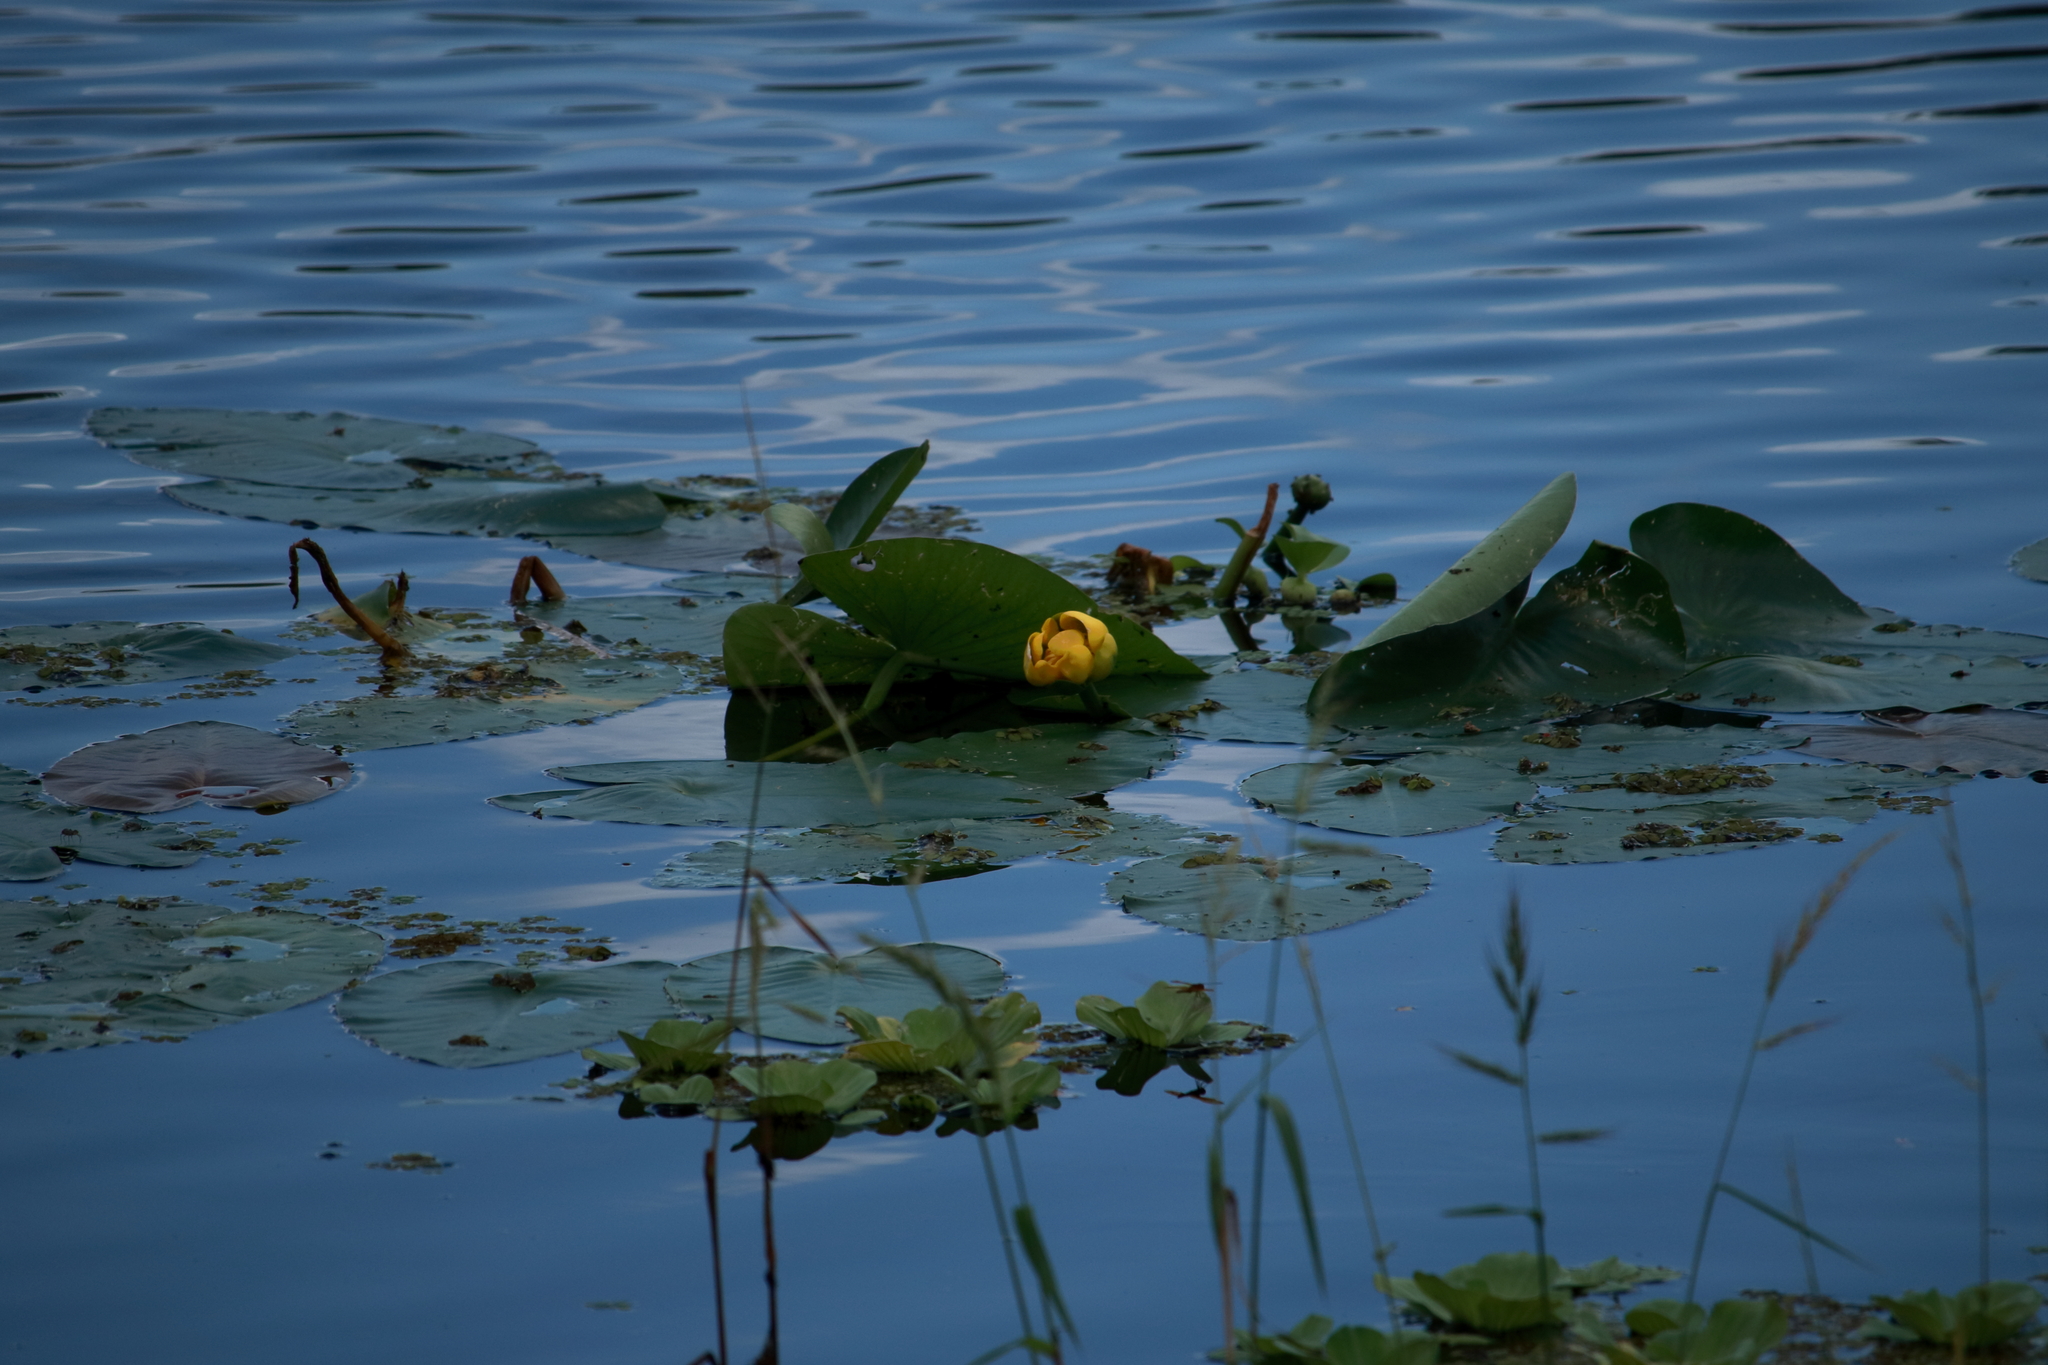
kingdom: Plantae
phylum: Tracheophyta
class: Magnoliopsida
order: Nymphaeales
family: Nymphaeaceae
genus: Nuphar
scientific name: Nuphar advena
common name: Spatter-dock
